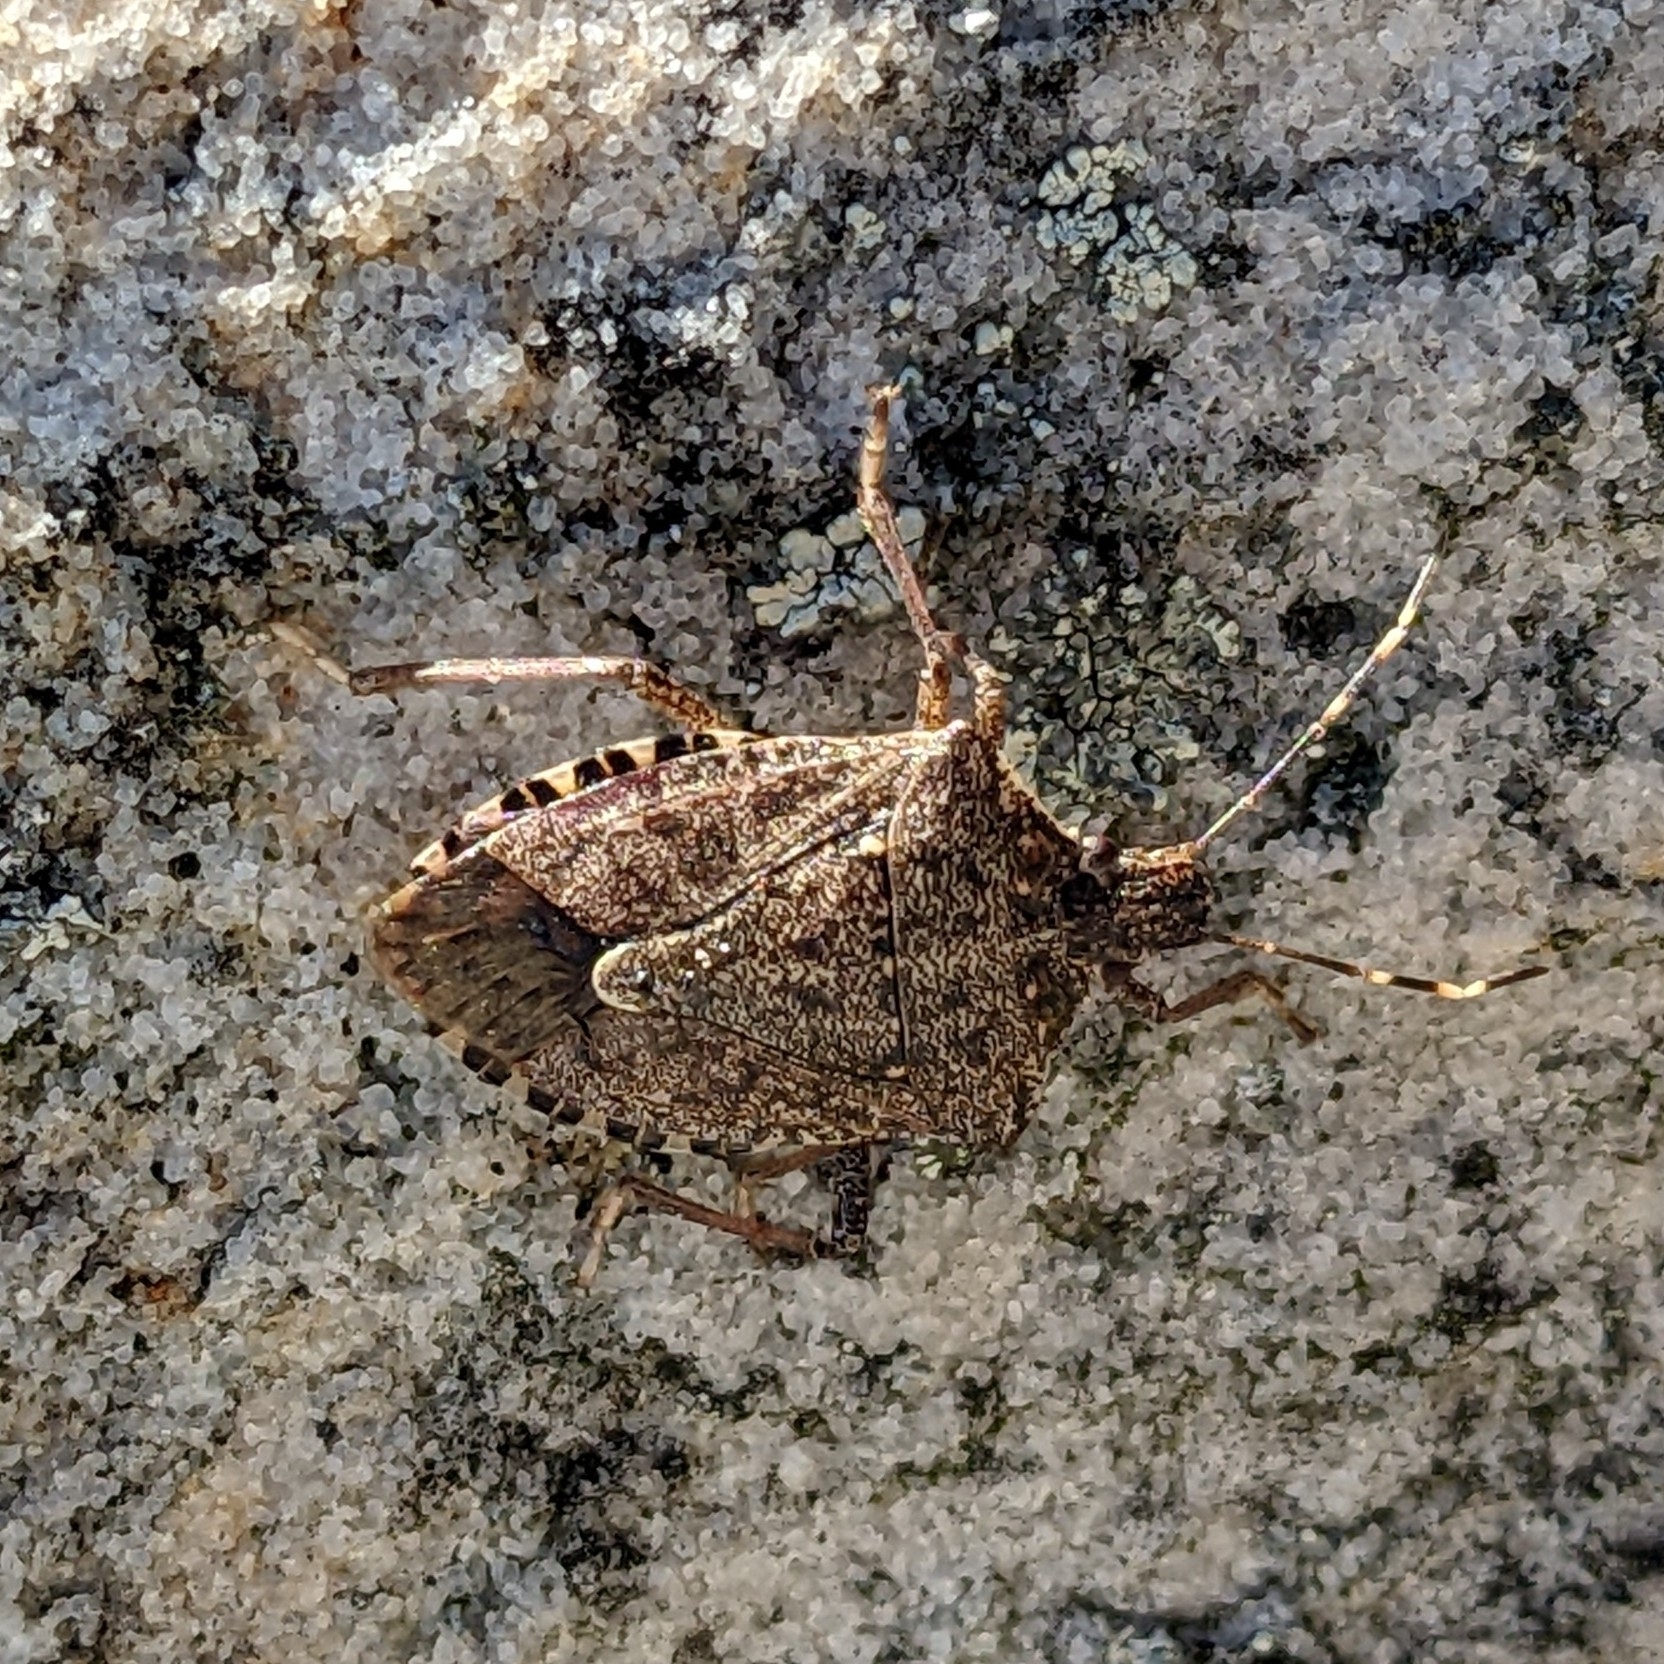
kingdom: Animalia
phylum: Arthropoda
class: Insecta
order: Hemiptera
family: Pentatomidae
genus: Halyomorpha
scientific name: Halyomorpha halys
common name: Brown marmorated stink bug
